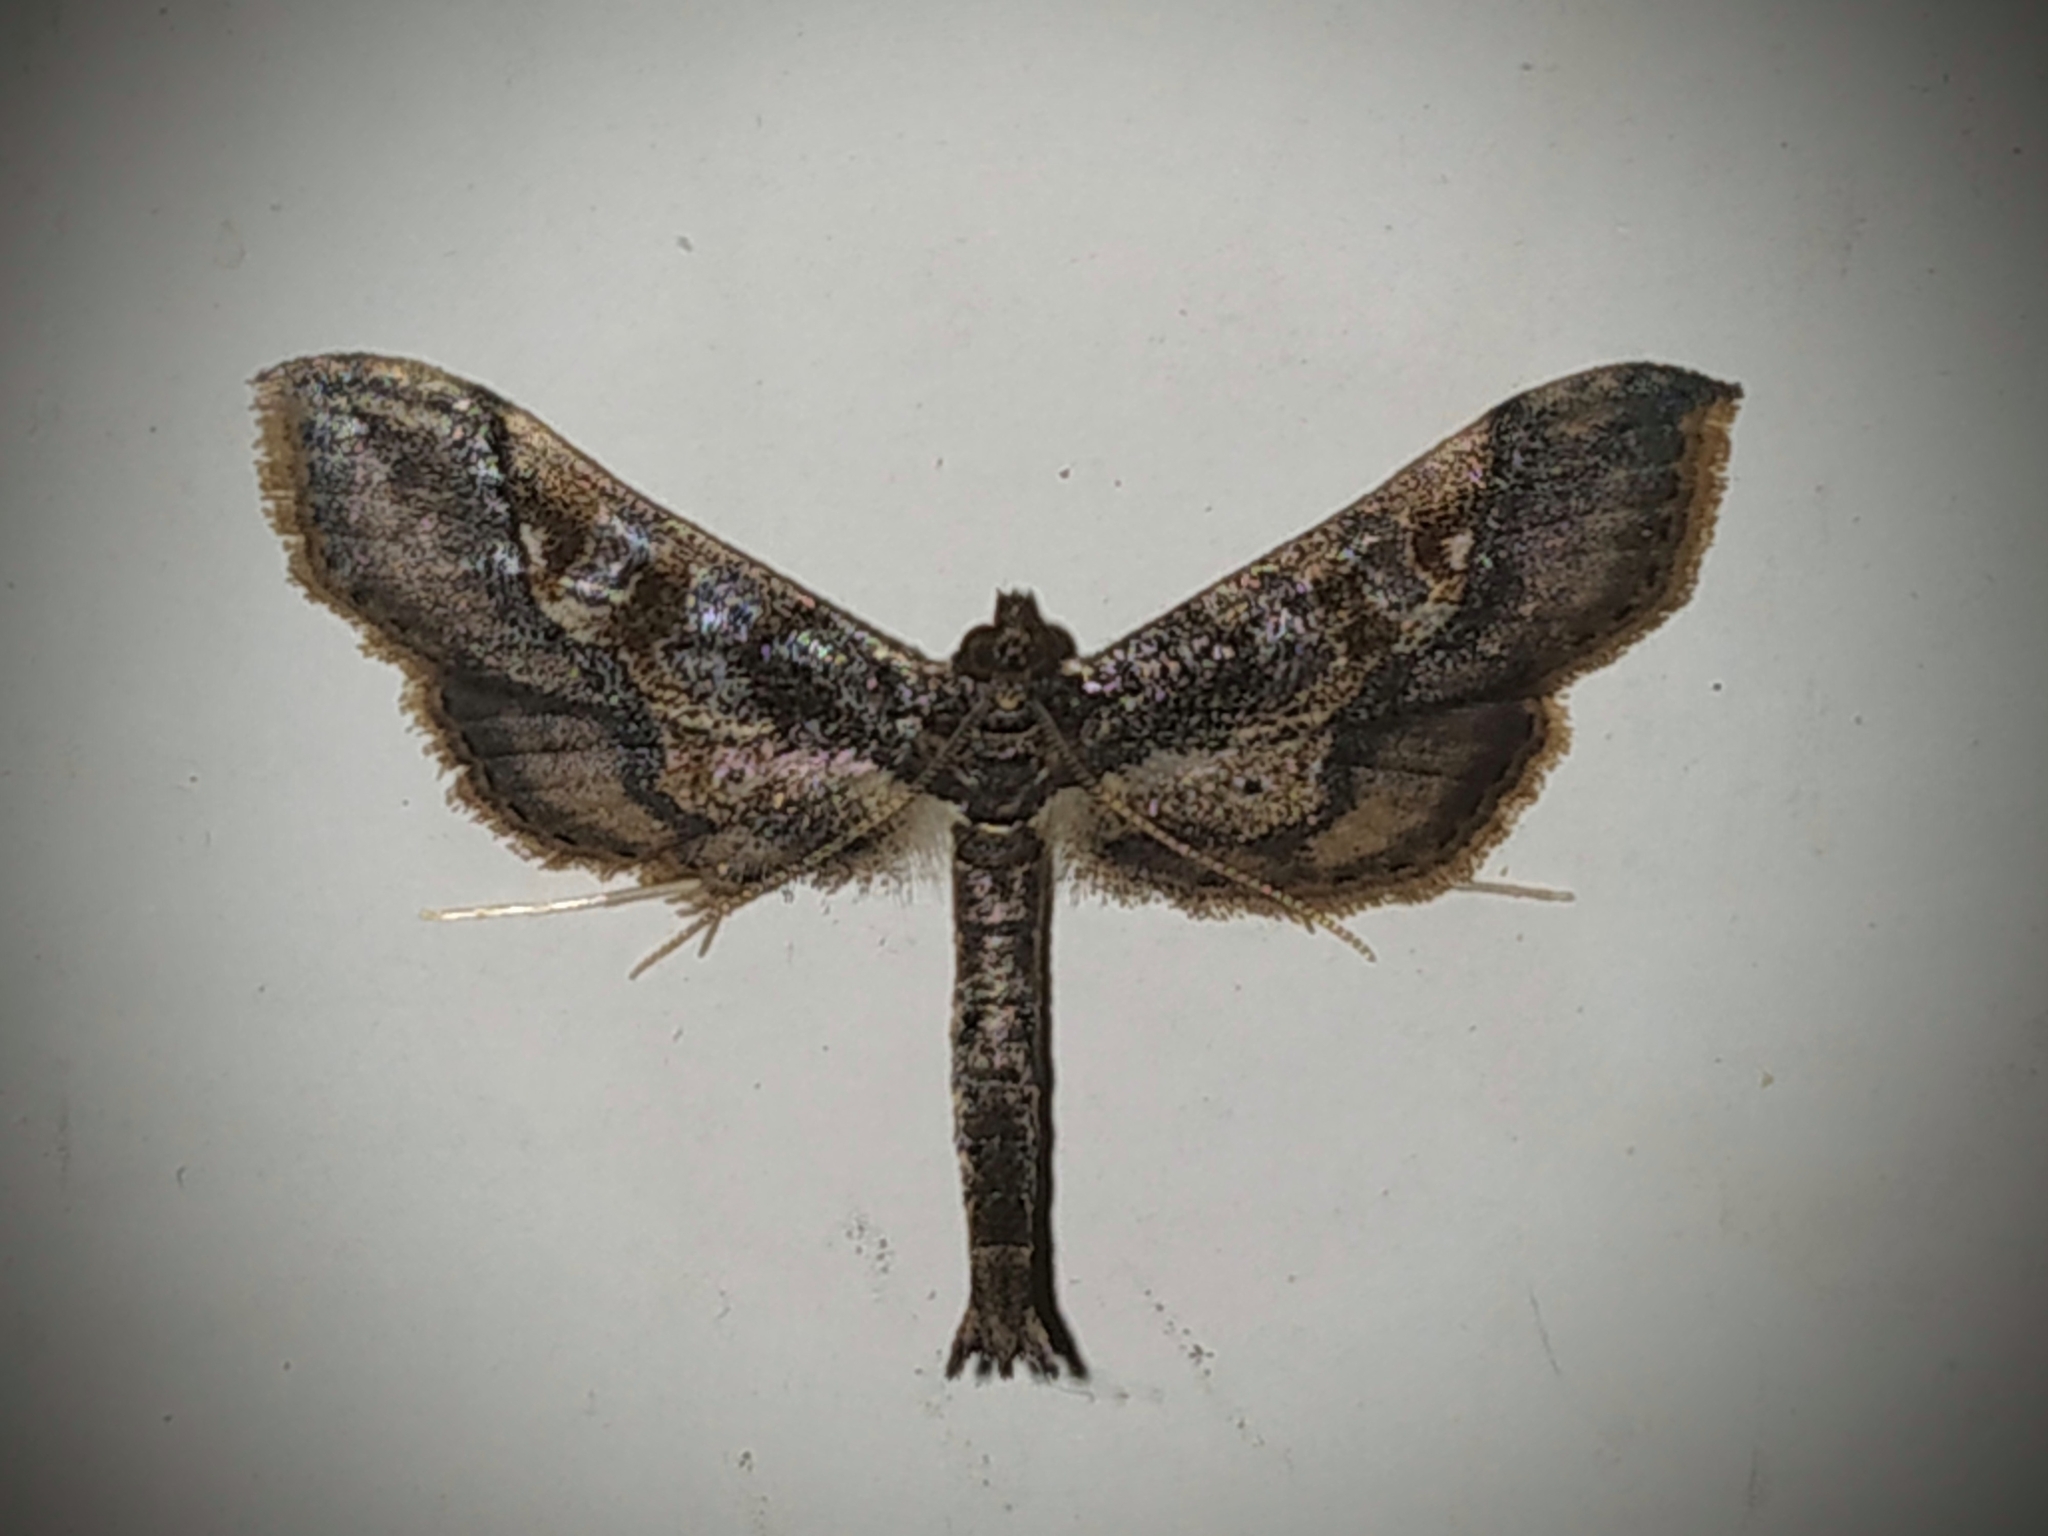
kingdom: Animalia
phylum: Arthropoda
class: Insecta
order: Lepidoptera
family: Crambidae
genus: Hydriris
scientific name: Hydriris ornatalis
